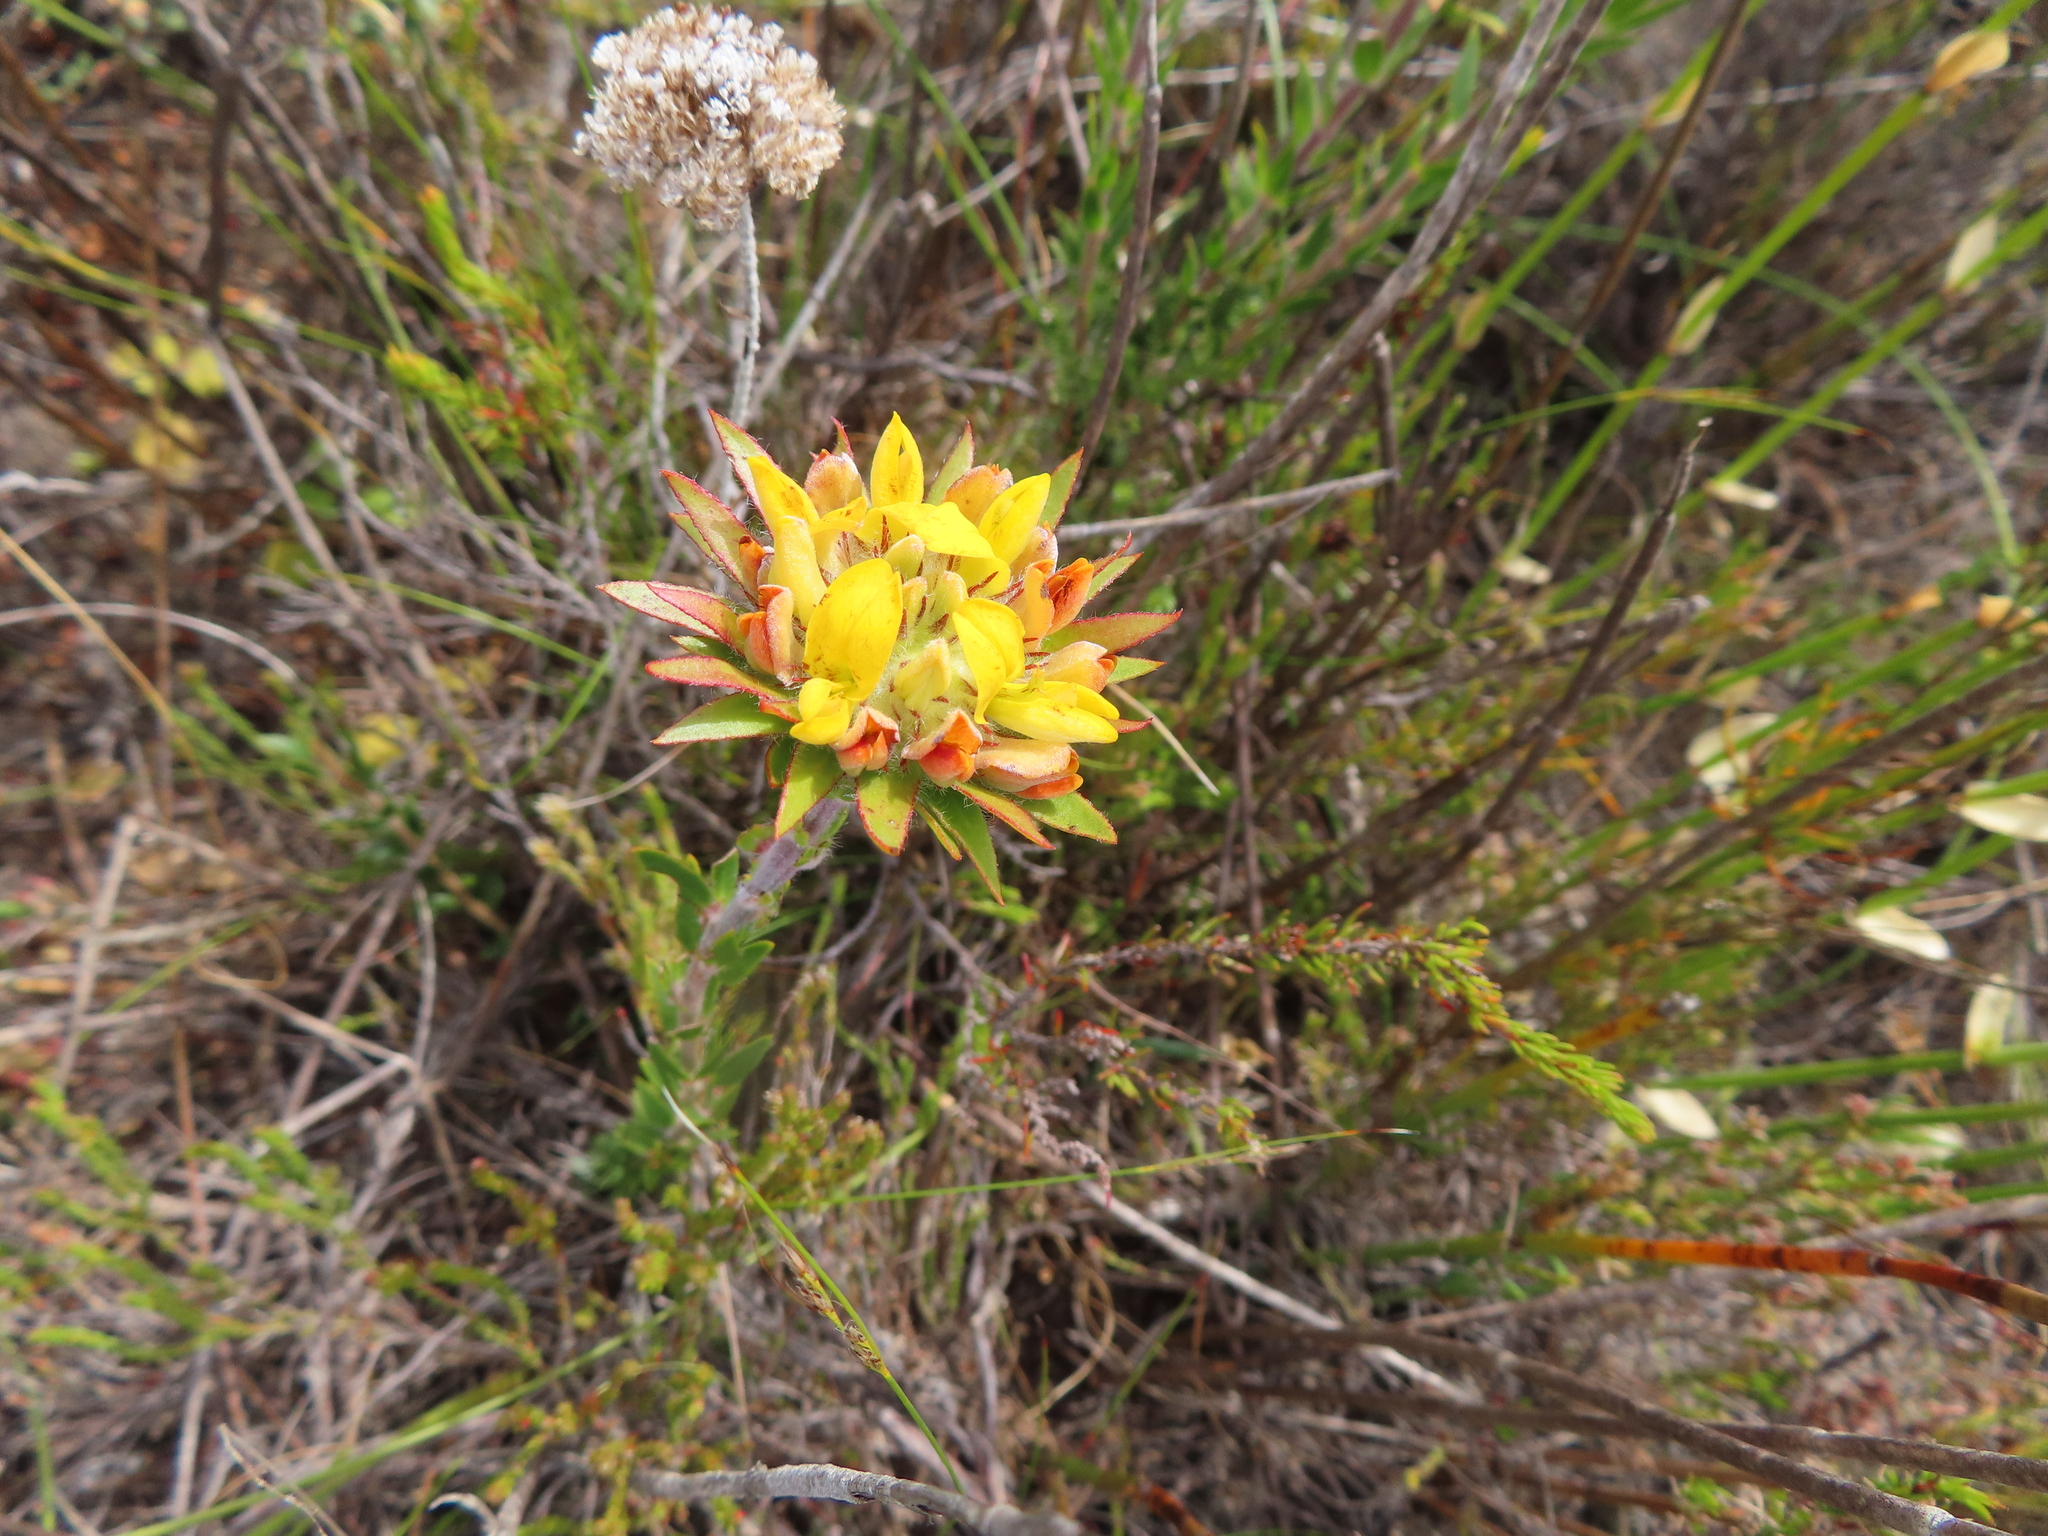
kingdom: Plantae
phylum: Tracheophyta
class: Magnoliopsida
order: Fabales
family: Fabaceae
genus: Aspalathus
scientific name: Aspalathus aspalathoides
